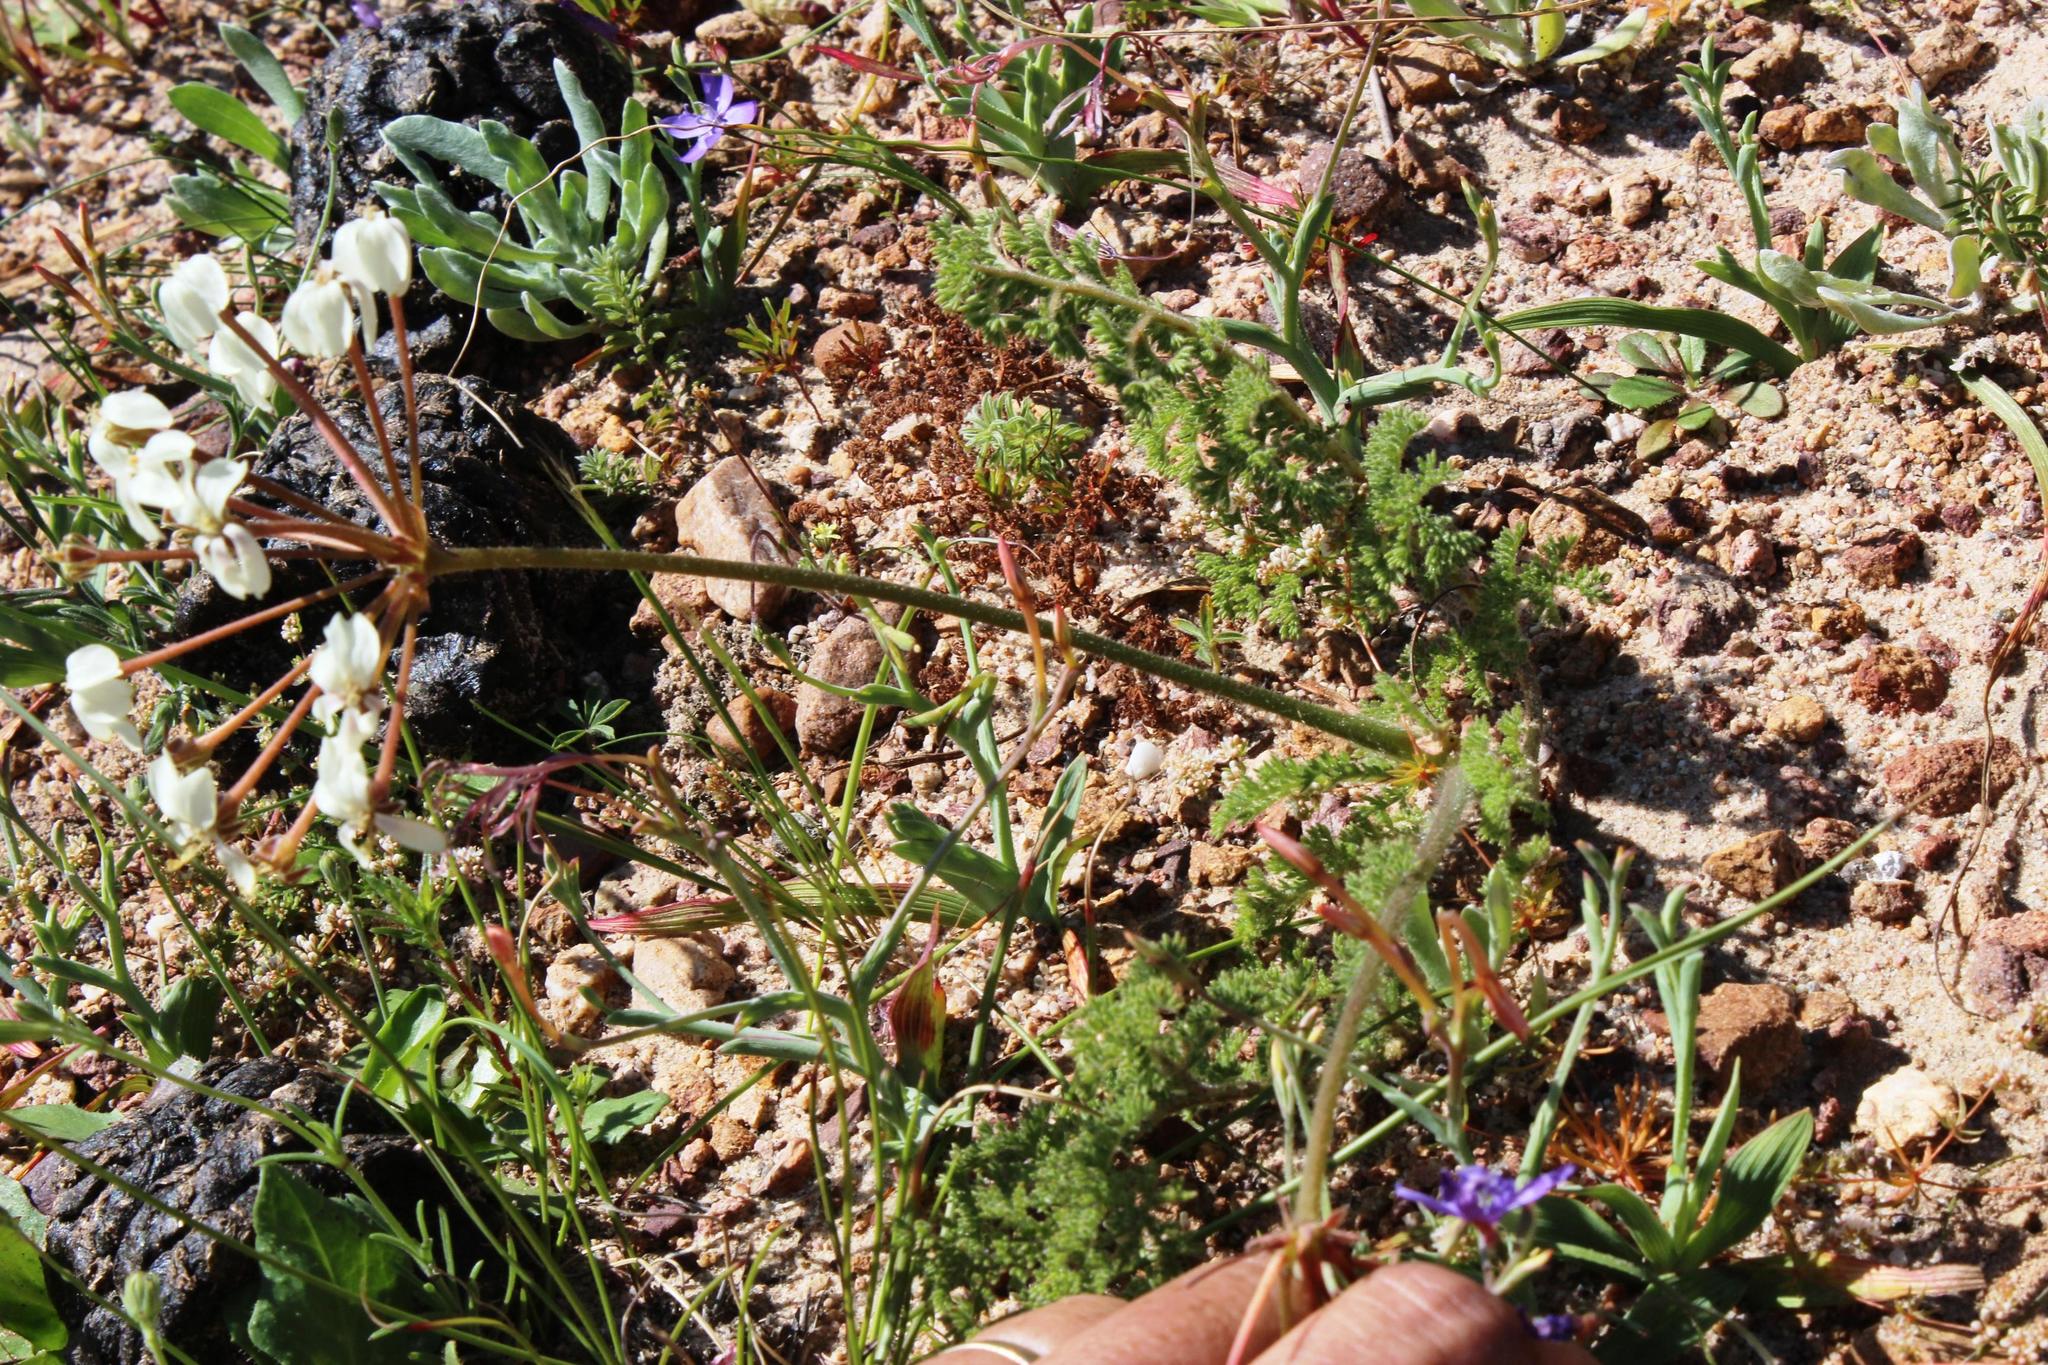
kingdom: Plantae
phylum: Tracheophyta
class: Magnoliopsida
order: Geraniales
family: Geraniaceae
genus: Pelargonium
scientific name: Pelargonium triste
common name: Night-scent pelargonium
